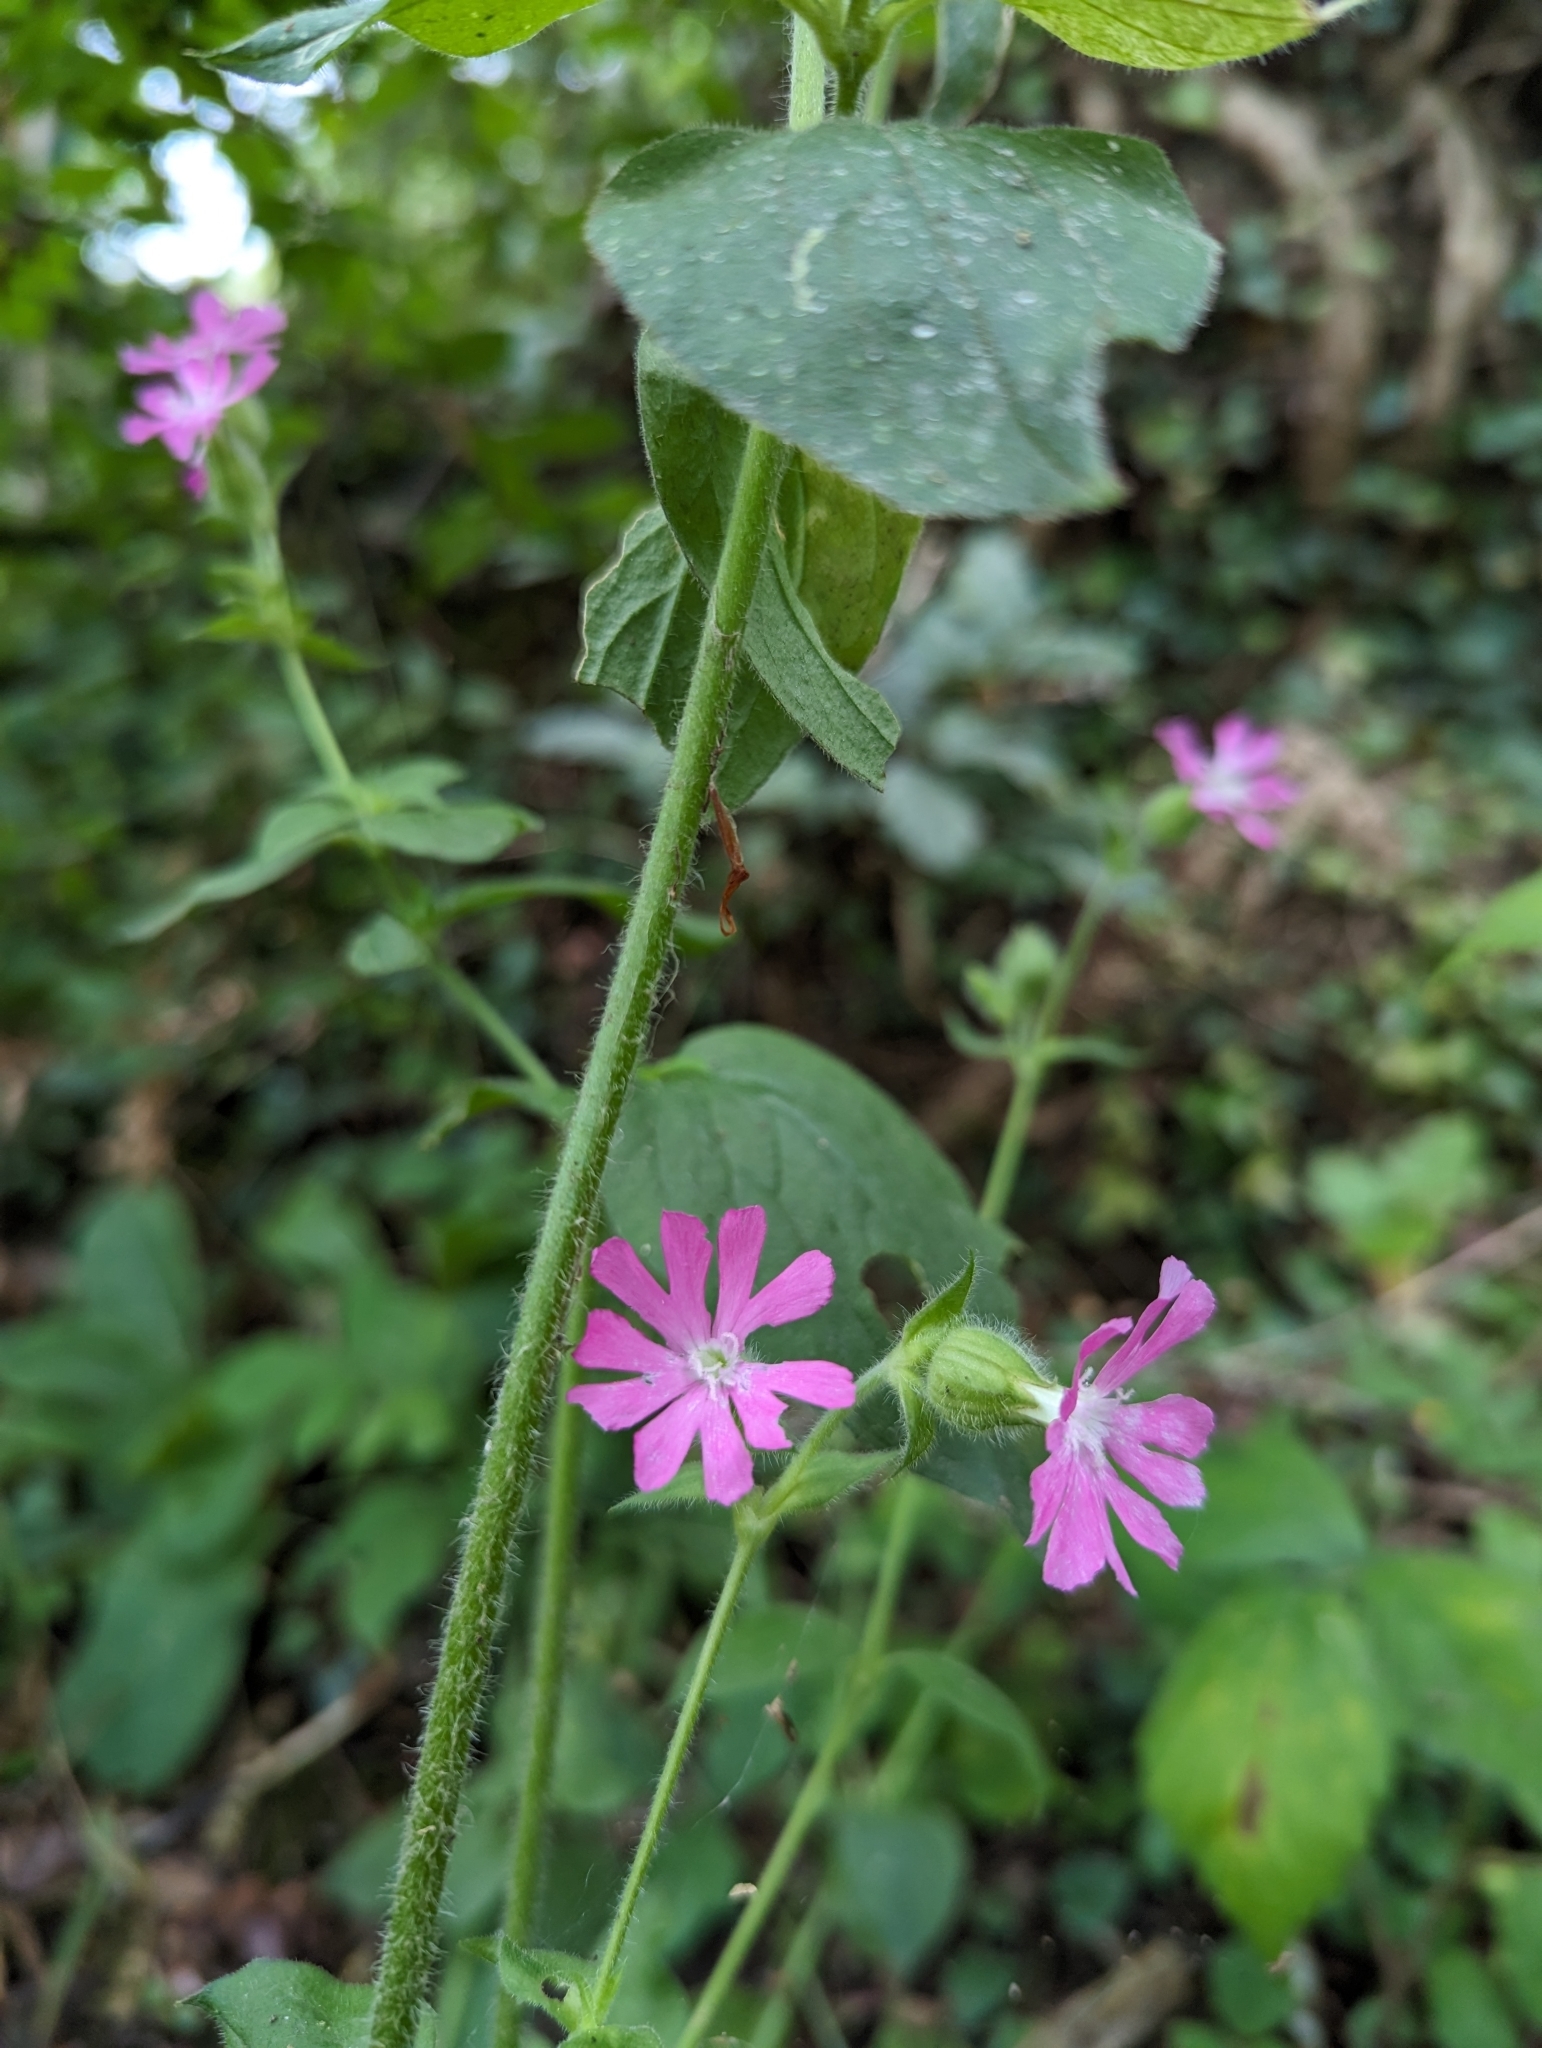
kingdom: Plantae
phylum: Tracheophyta
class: Magnoliopsida
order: Caryophyllales
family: Caryophyllaceae
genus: Silene
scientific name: Silene dioica
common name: Red campion
